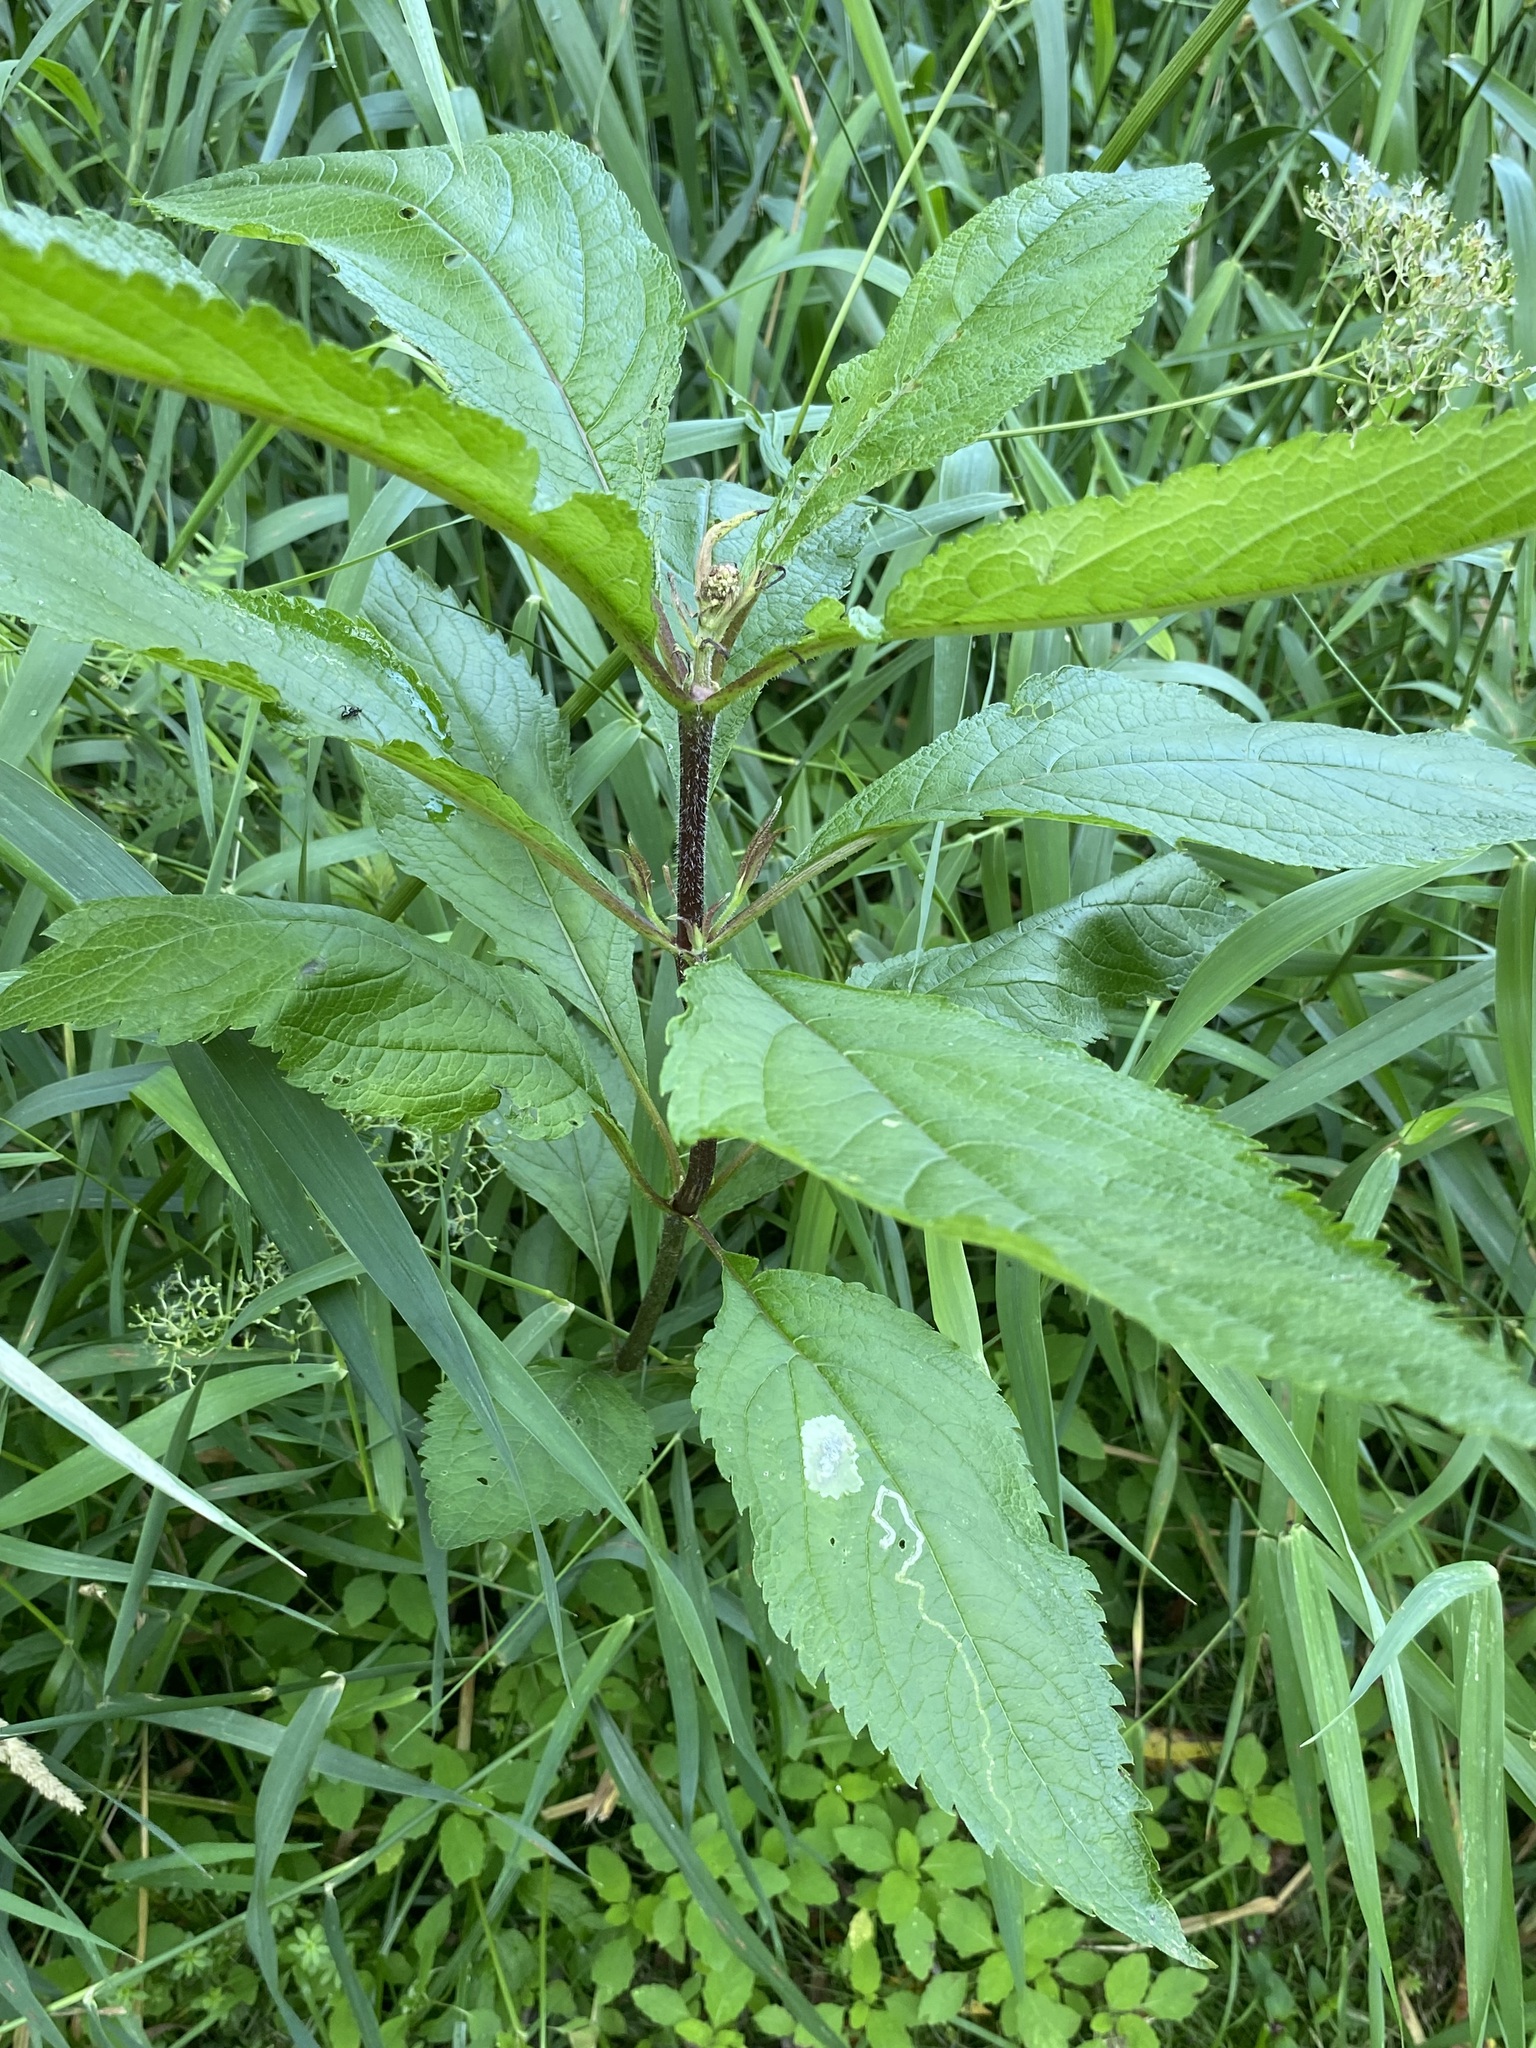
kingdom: Plantae
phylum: Tracheophyta
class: Magnoliopsida
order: Asterales
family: Asteraceae
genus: Eutrochium
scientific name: Eutrochium maculatum
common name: Spotted joe pye weed
